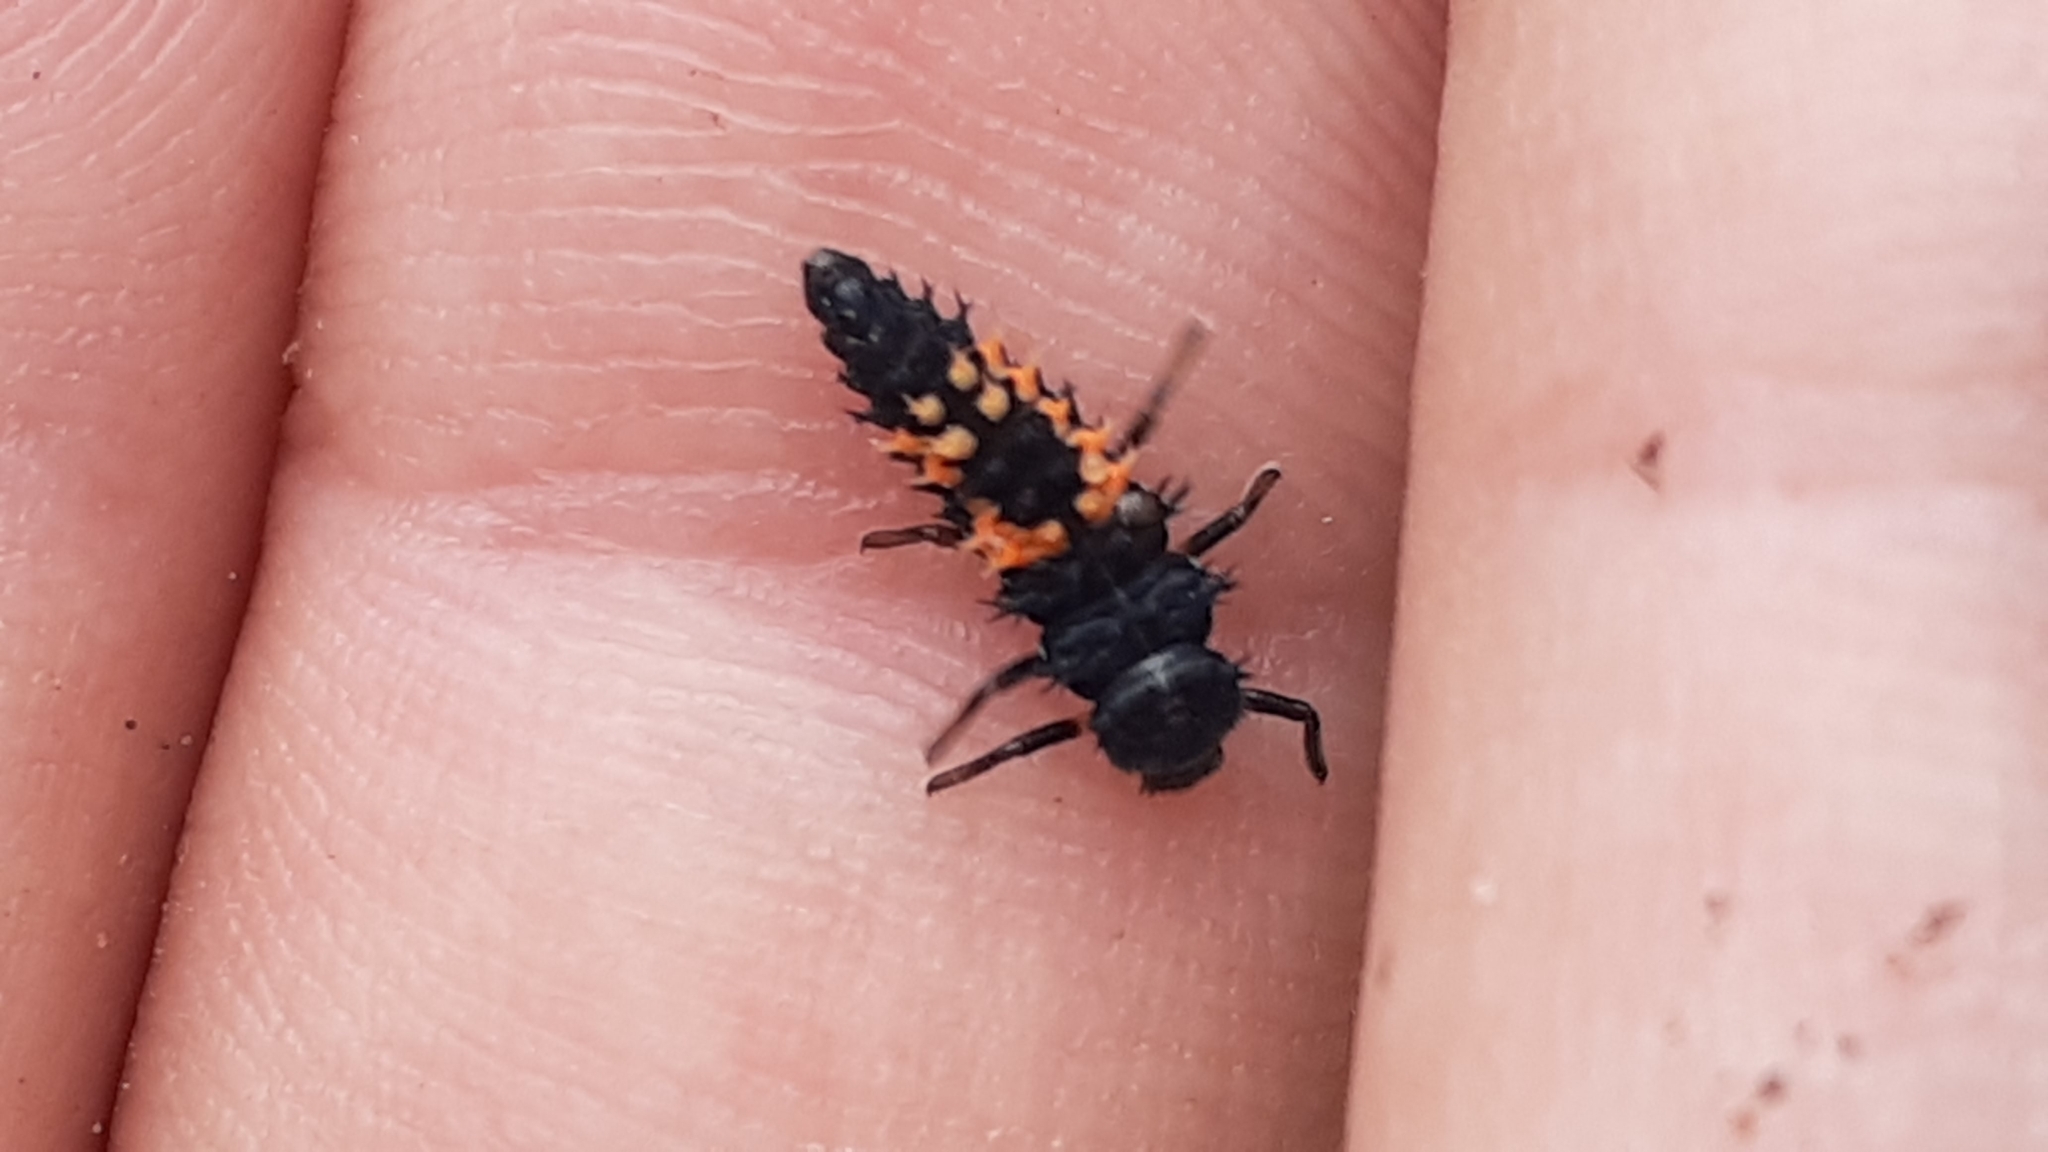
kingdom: Animalia
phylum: Arthropoda
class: Insecta
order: Coleoptera
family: Coccinellidae
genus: Harmonia
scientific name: Harmonia axyridis
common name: Harlequin ladybird
